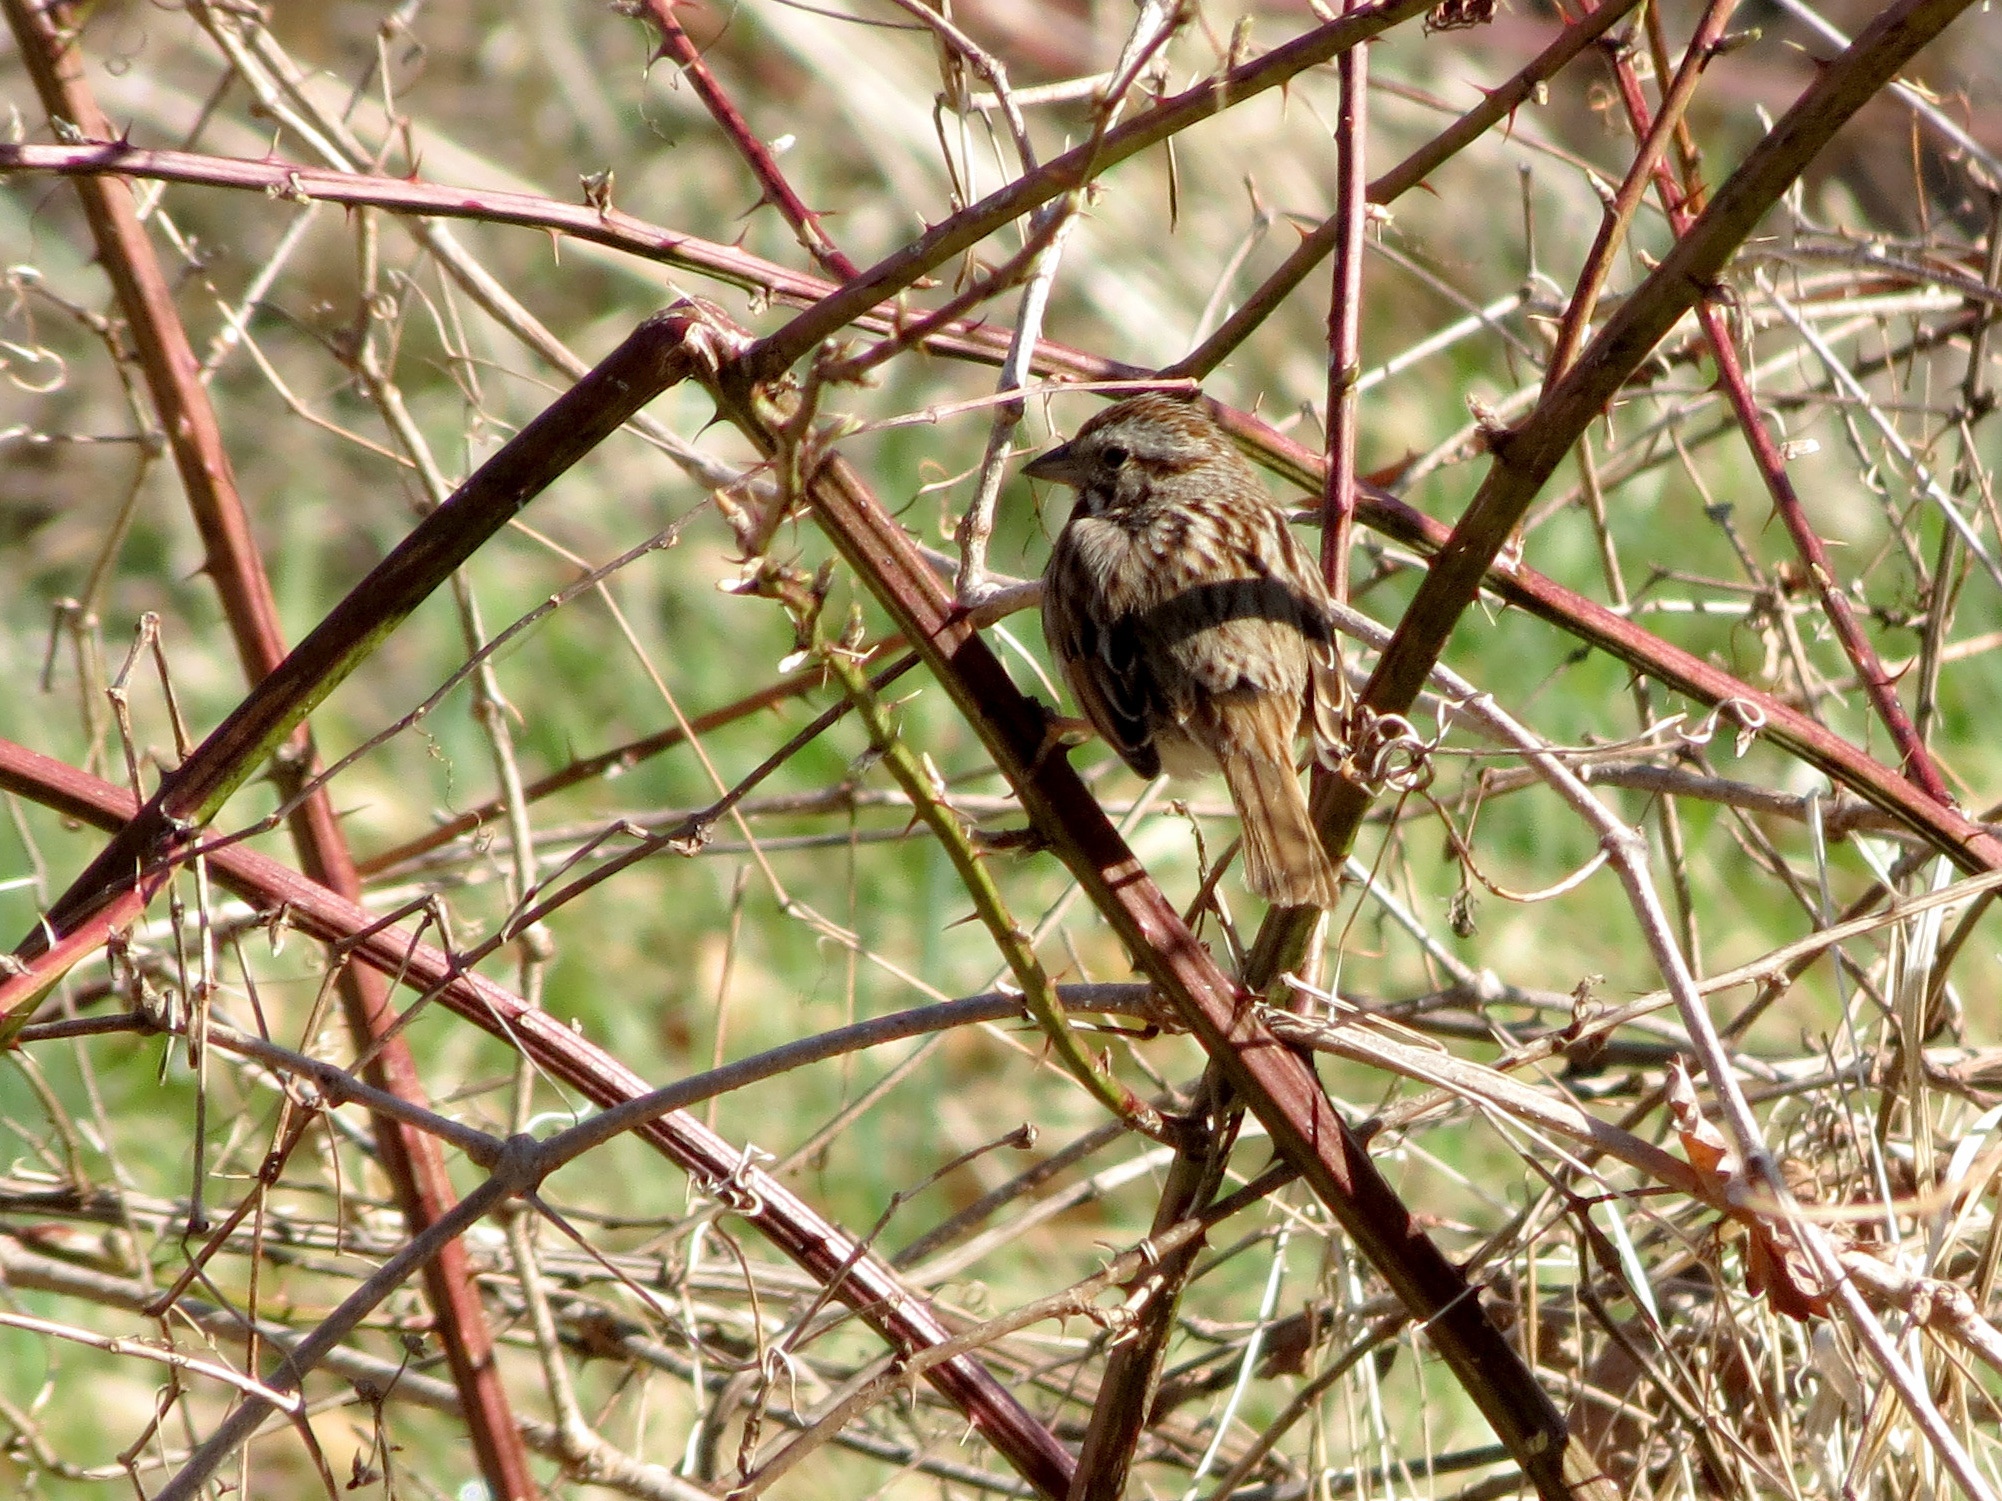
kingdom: Animalia
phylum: Chordata
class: Aves
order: Passeriformes
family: Passerellidae
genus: Melospiza
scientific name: Melospiza melodia
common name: Song sparrow
